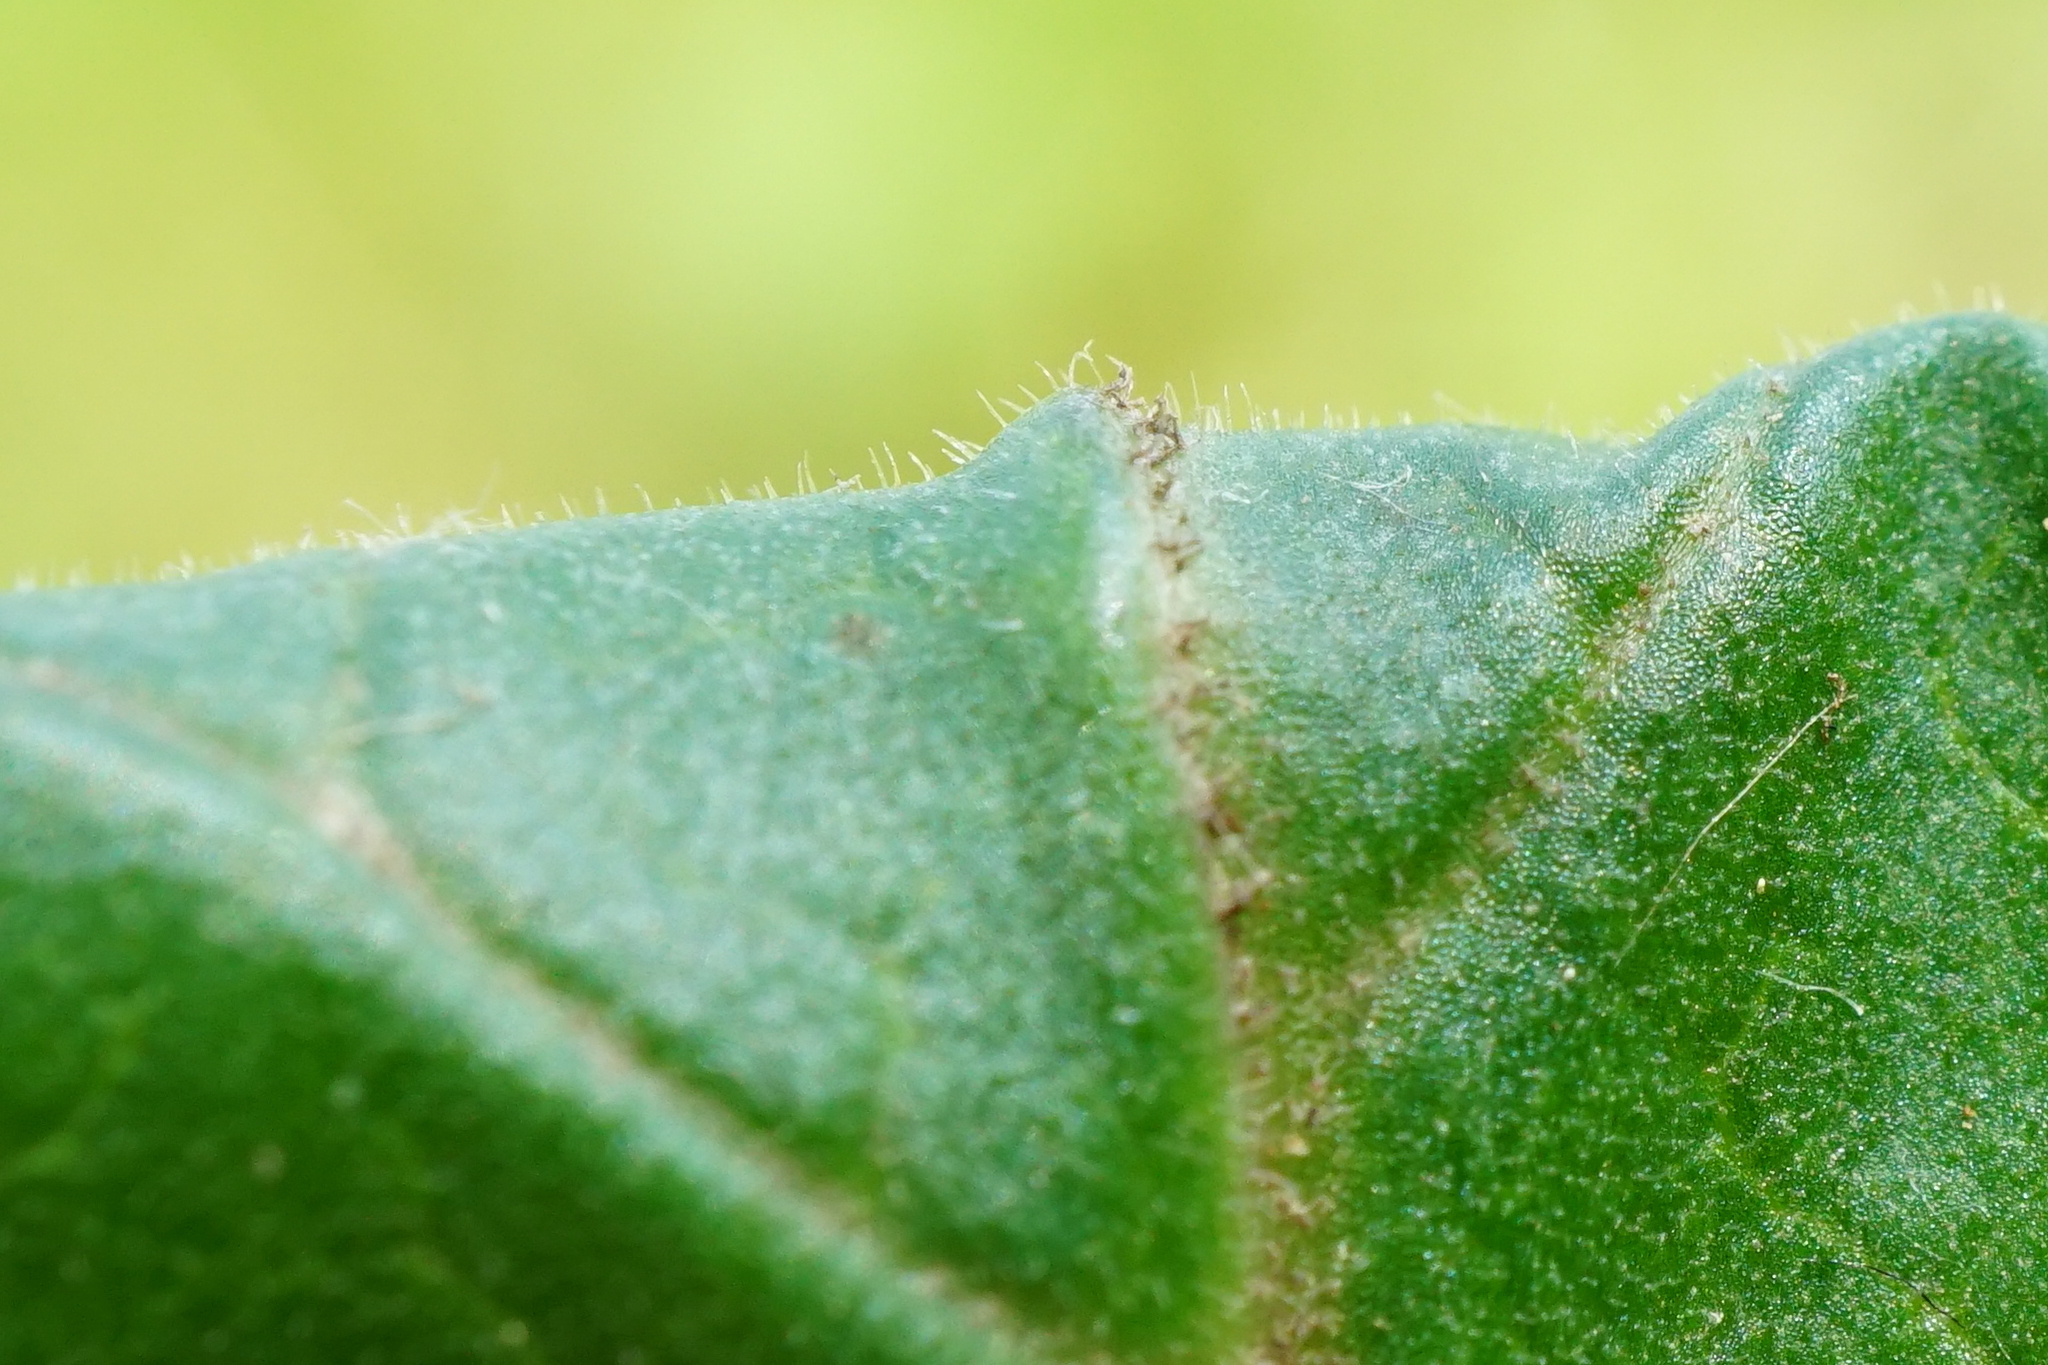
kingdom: Plantae
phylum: Tracheophyta
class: Magnoliopsida
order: Ericales
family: Primulaceae
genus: Primula
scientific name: Primula elatior
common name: Oxlip
